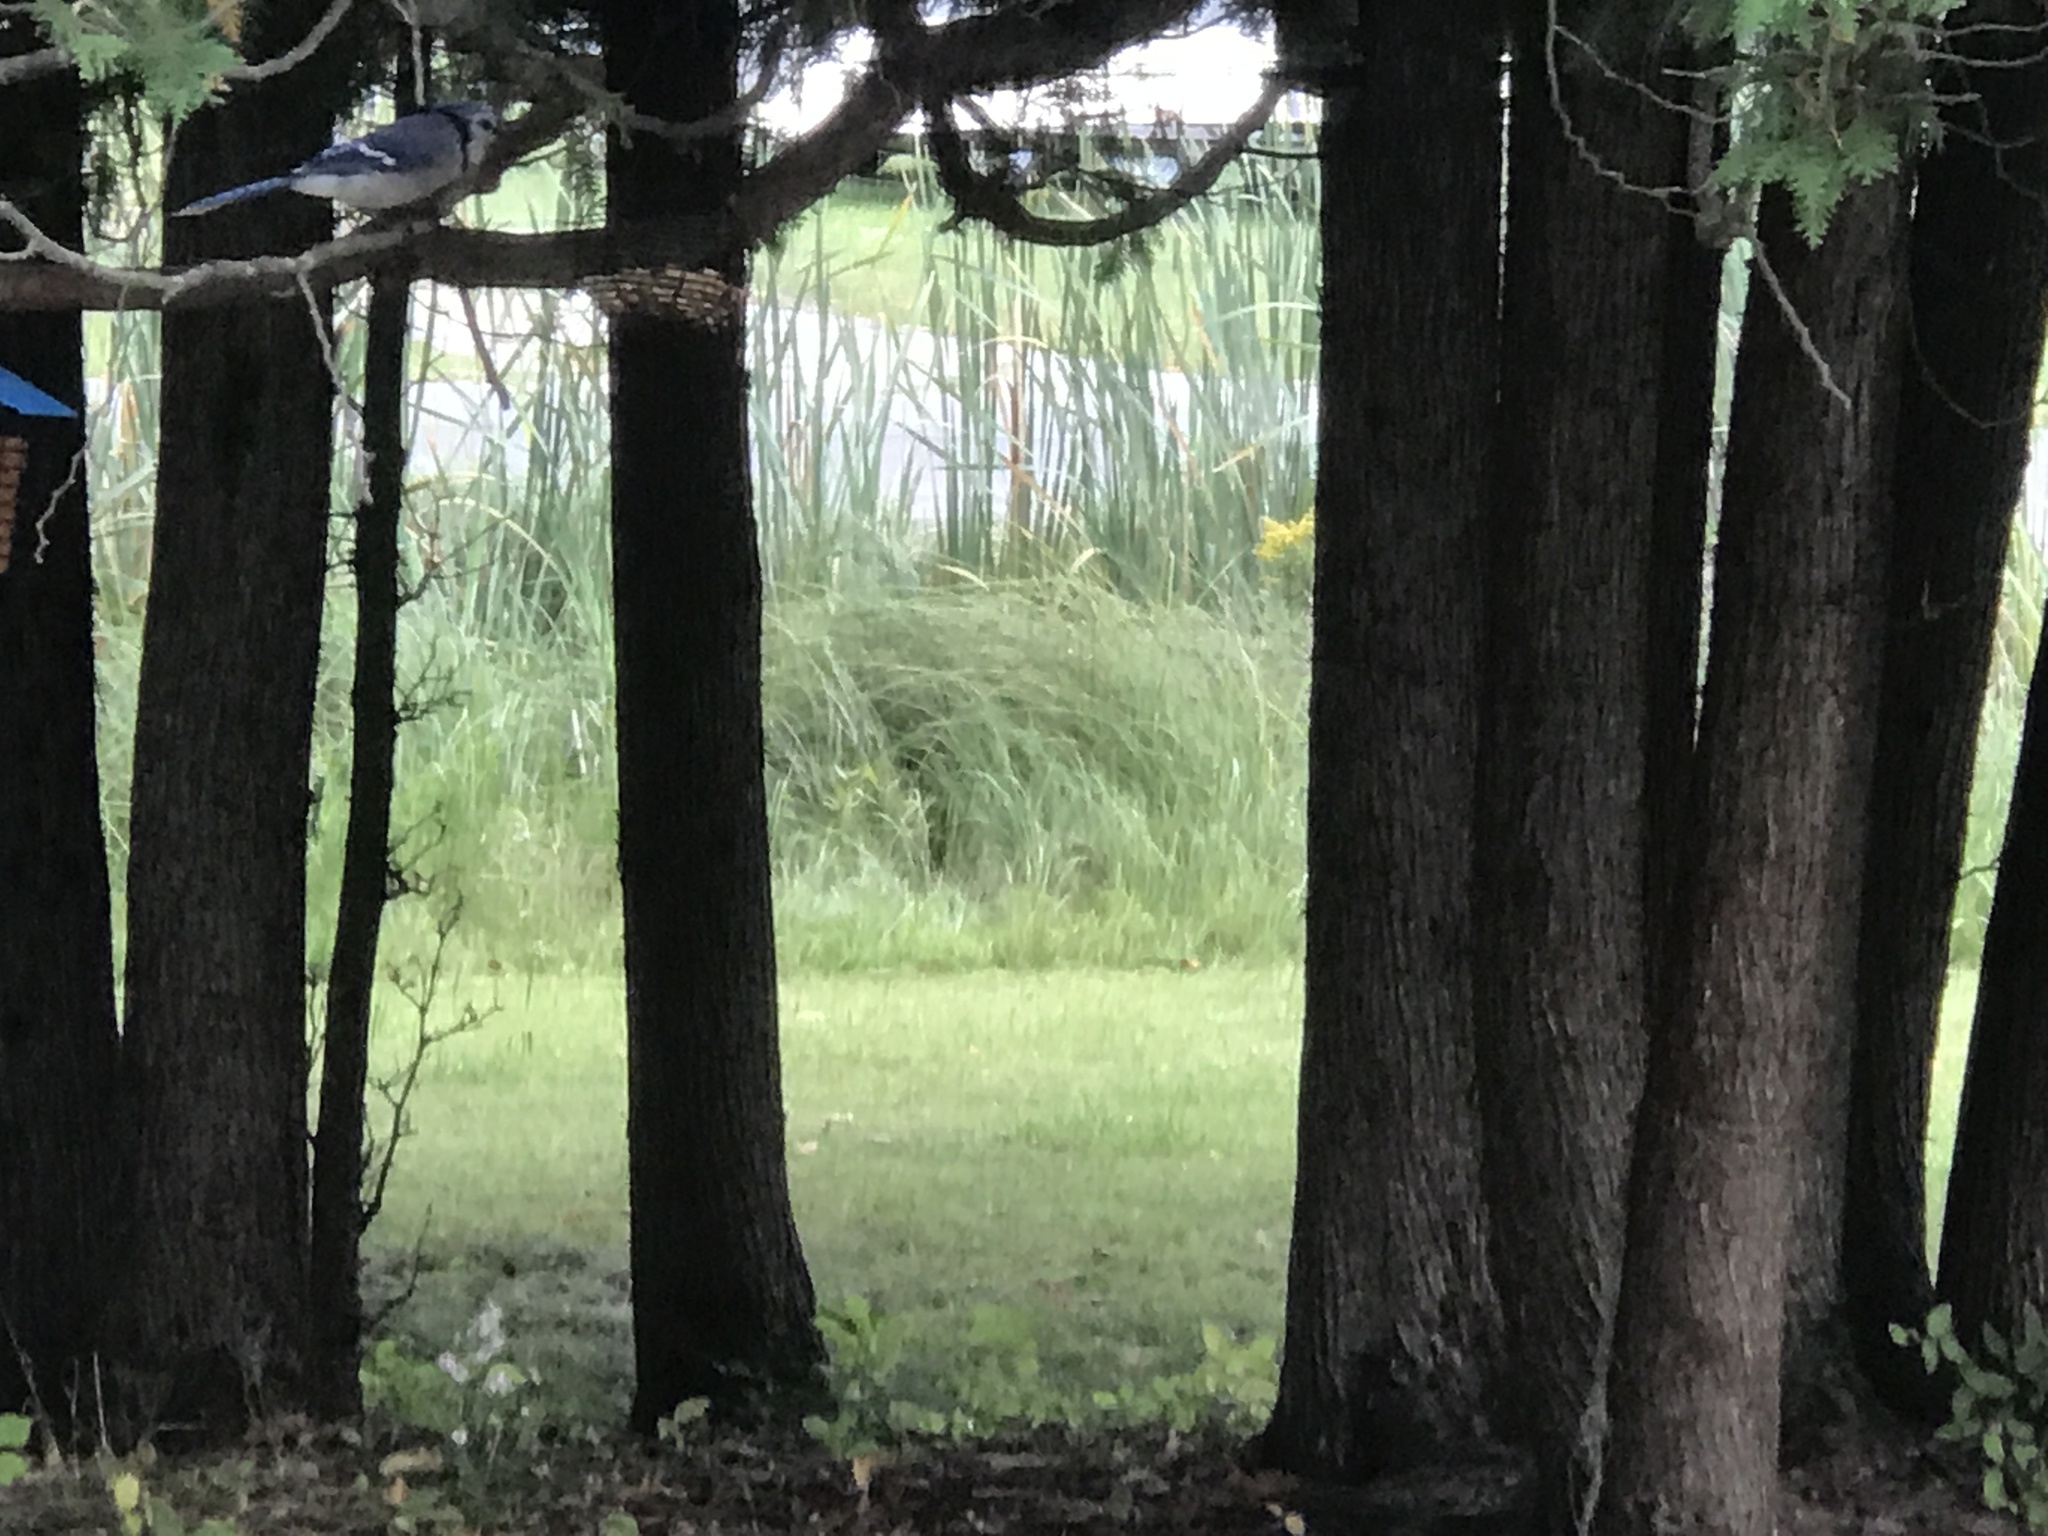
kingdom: Animalia
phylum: Chordata
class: Aves
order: Passeriformes
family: Corvidae
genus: Cyanocitta
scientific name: Cyanocitta cristata
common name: Blue jay
